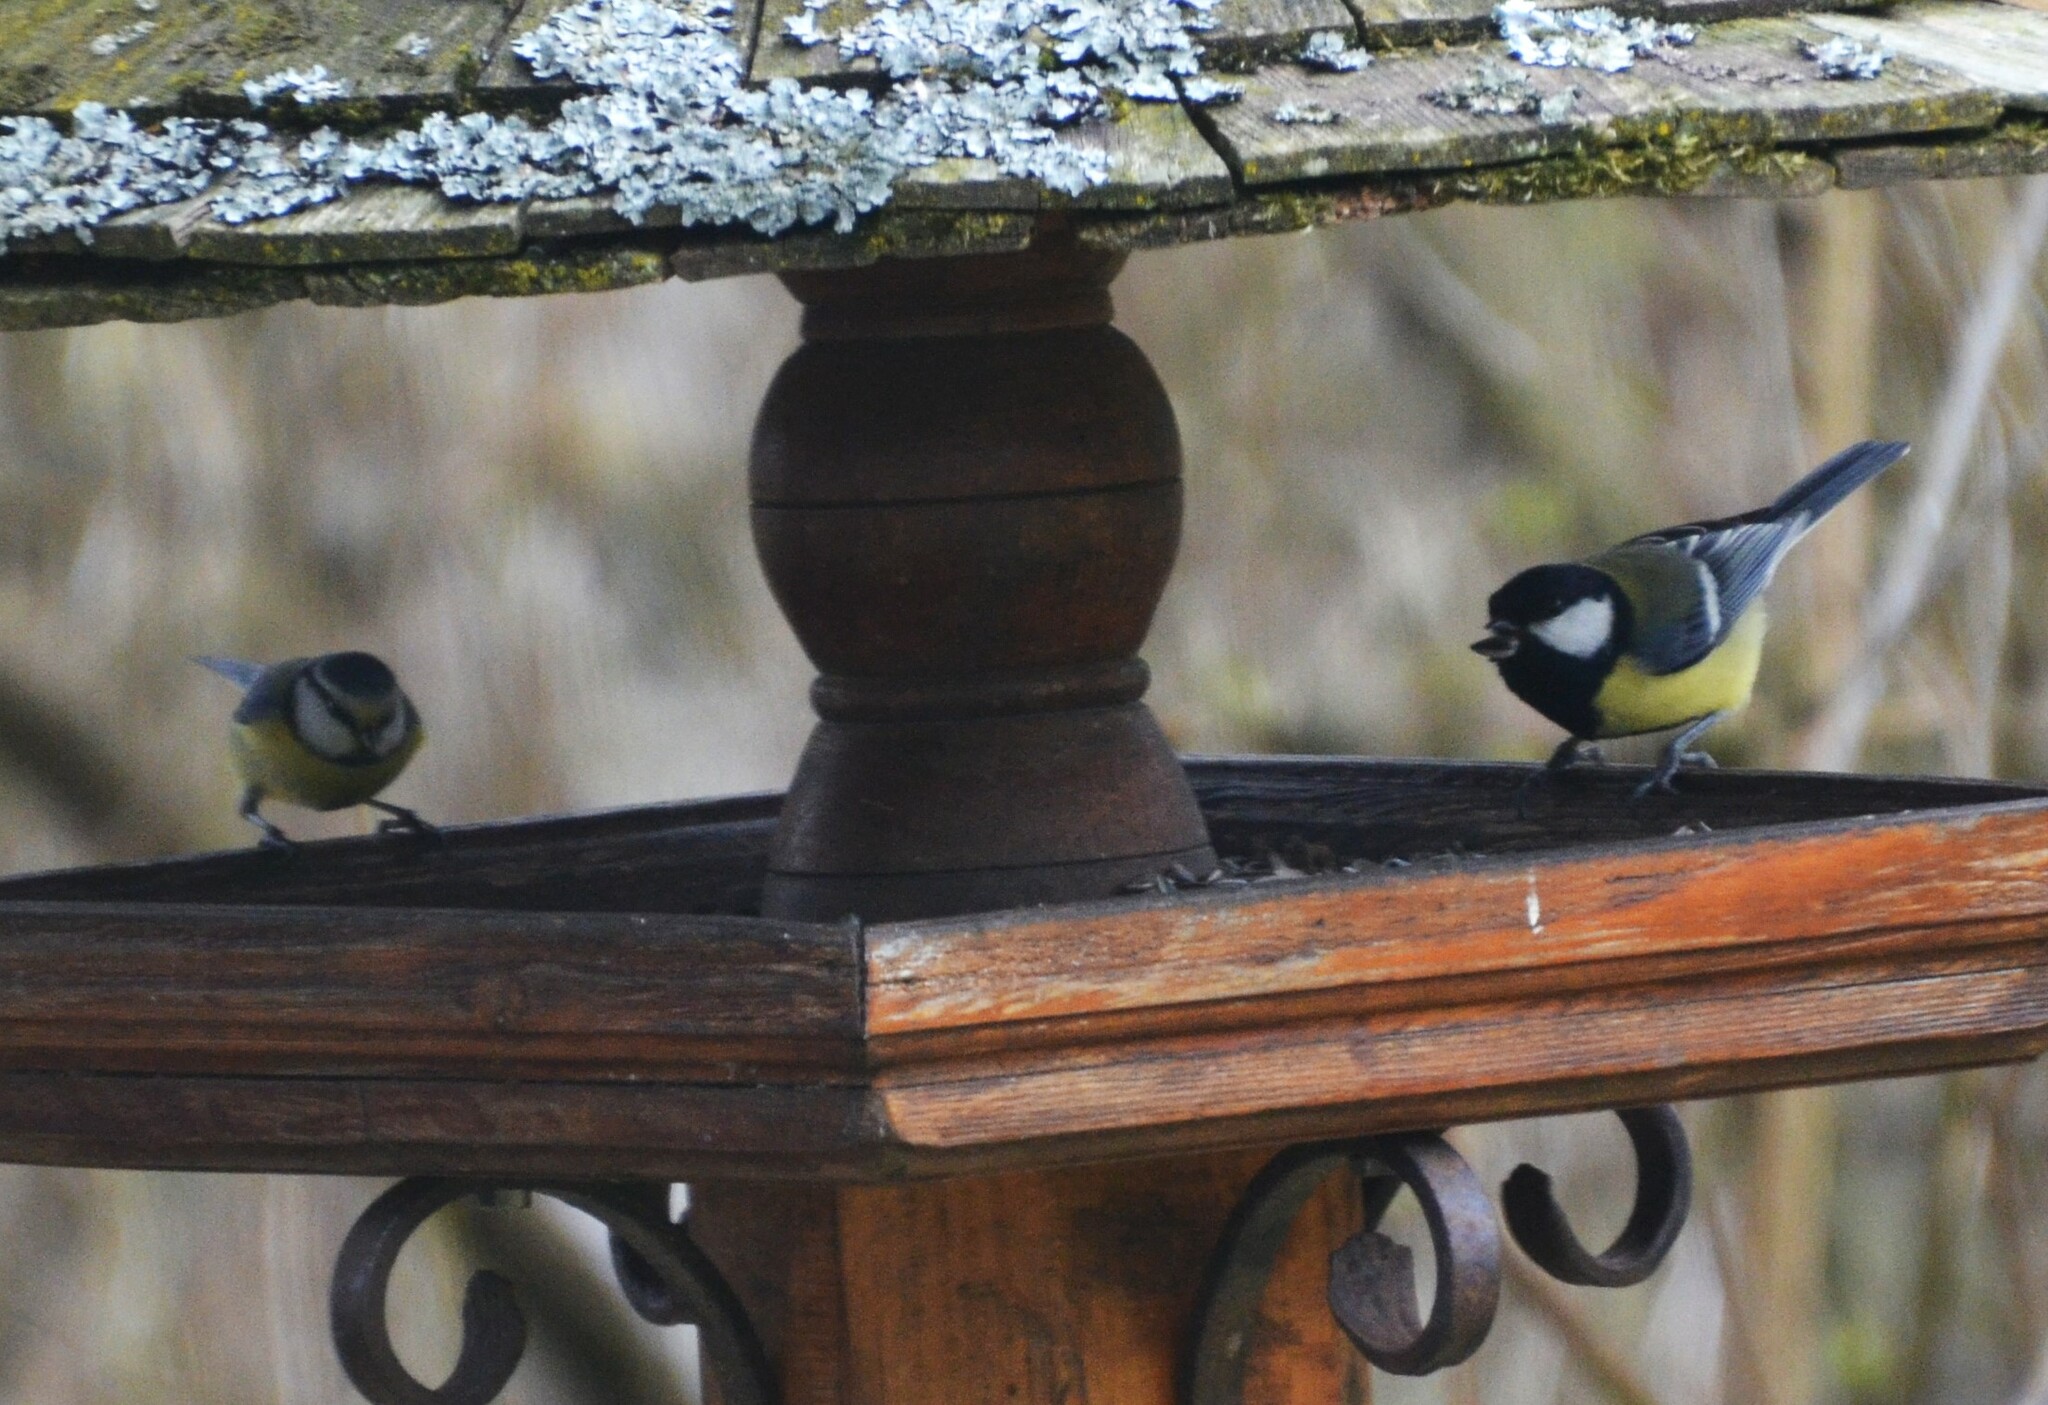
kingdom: Animalia
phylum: Chordata
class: Aves
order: Passeriformes
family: Paridae
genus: Parus
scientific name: Parus major
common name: Great tit
